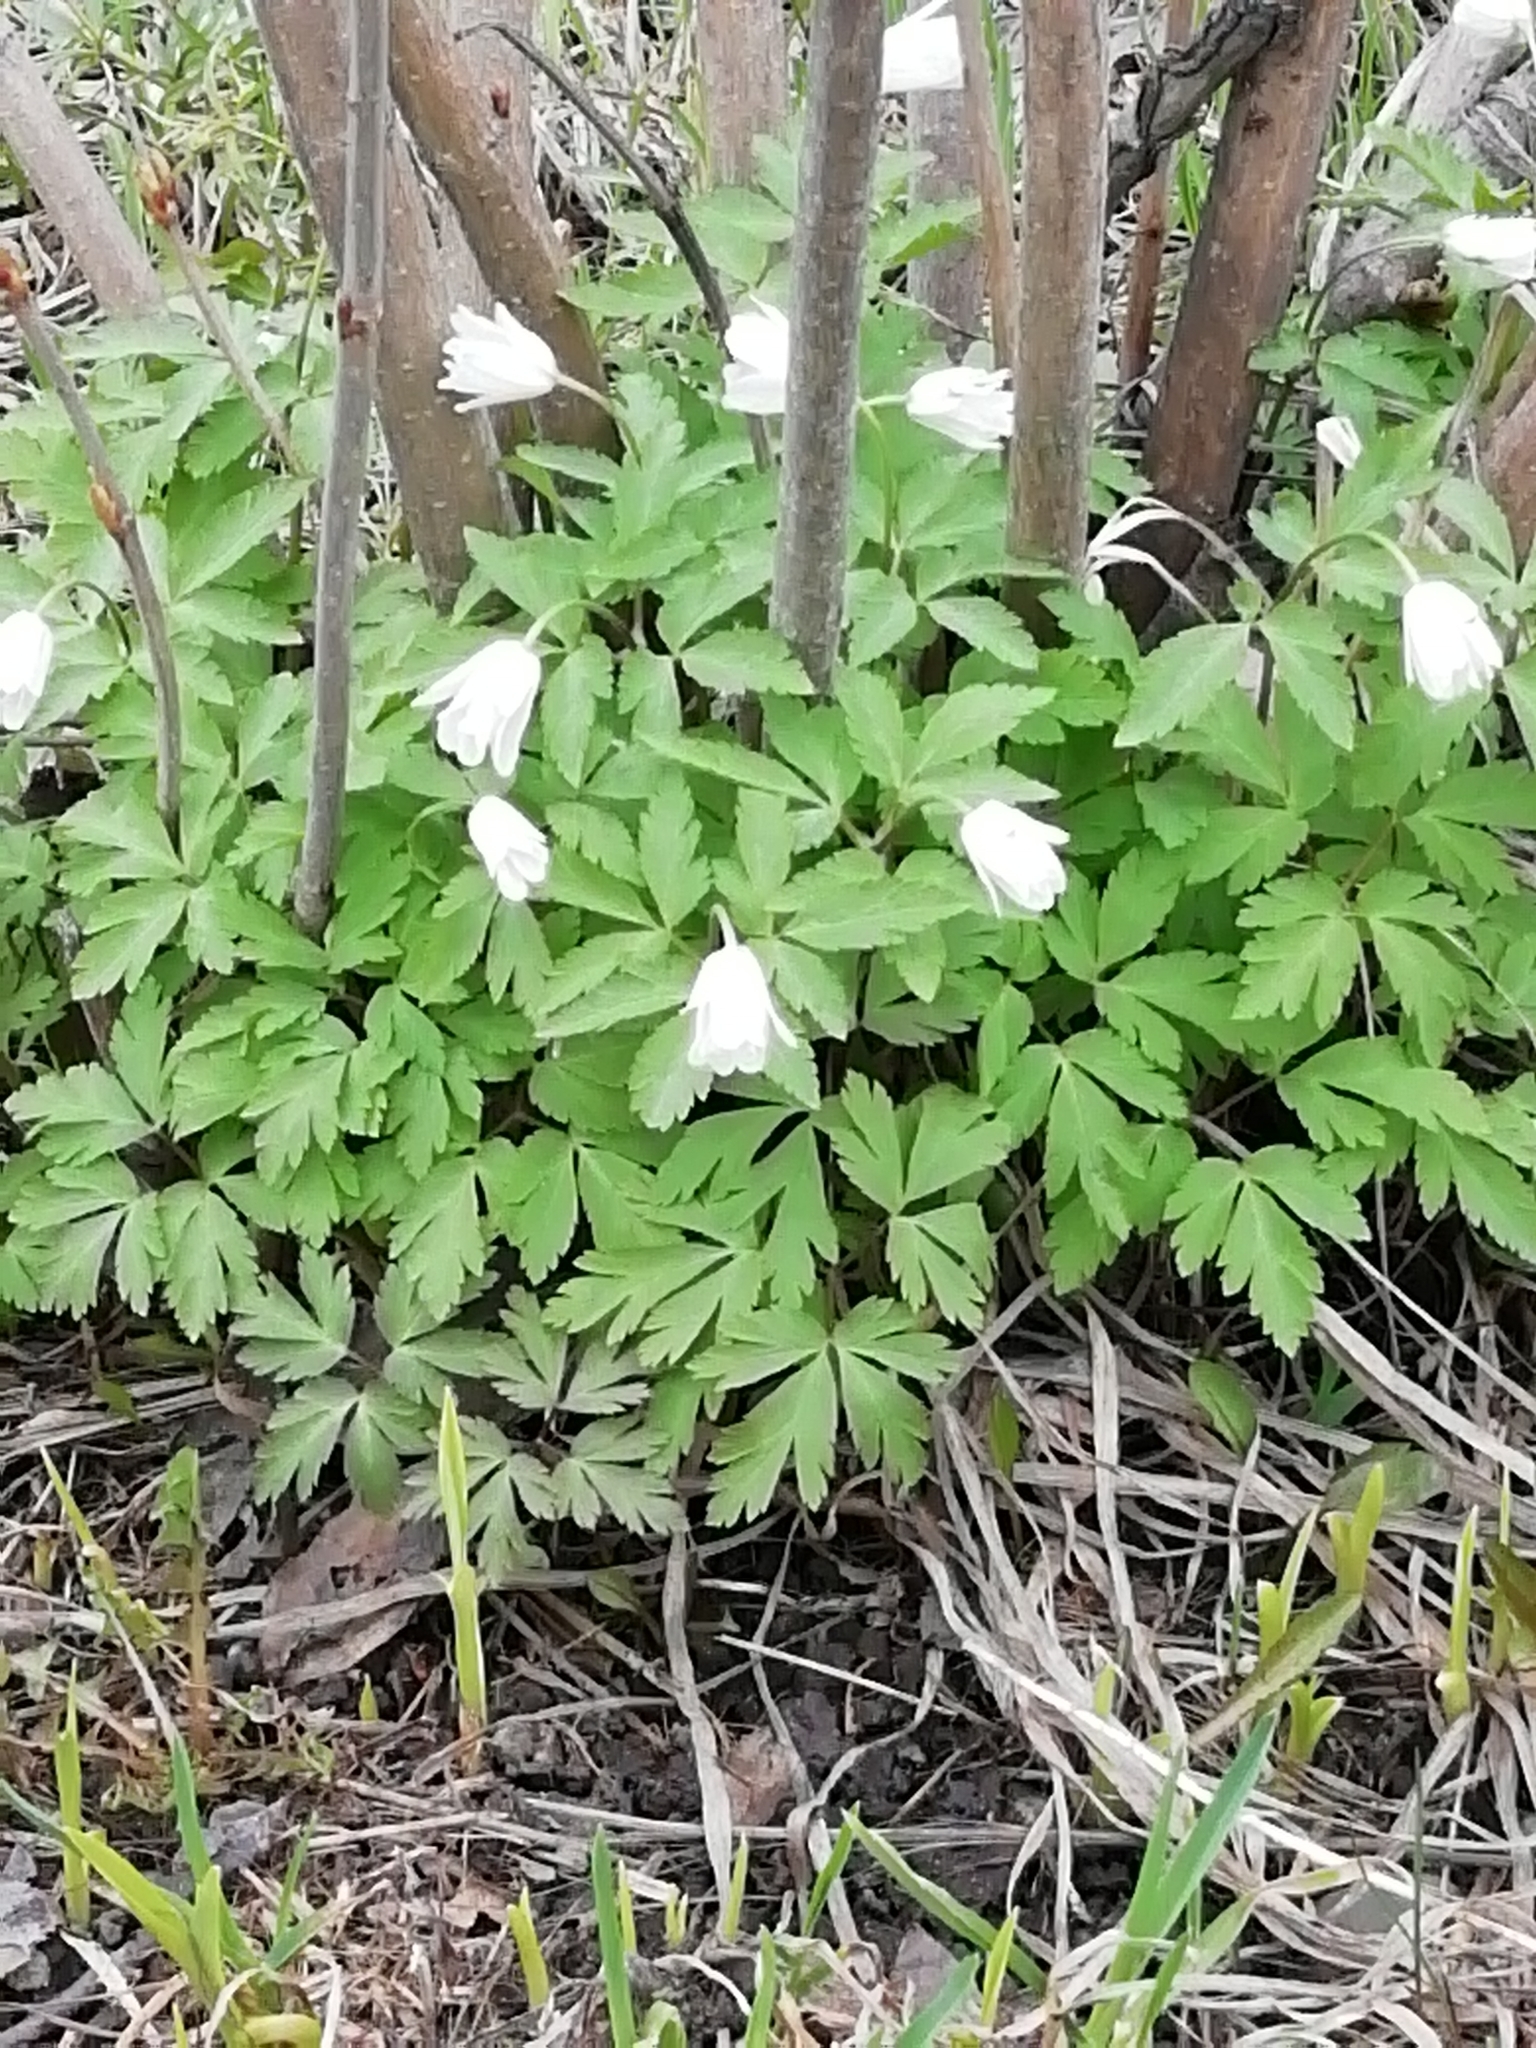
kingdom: Plantae
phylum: Tracheophyta
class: Magnoliopsida
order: Ranunculales
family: Ranunculaceae
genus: Anemone
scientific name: Anemone altaica
